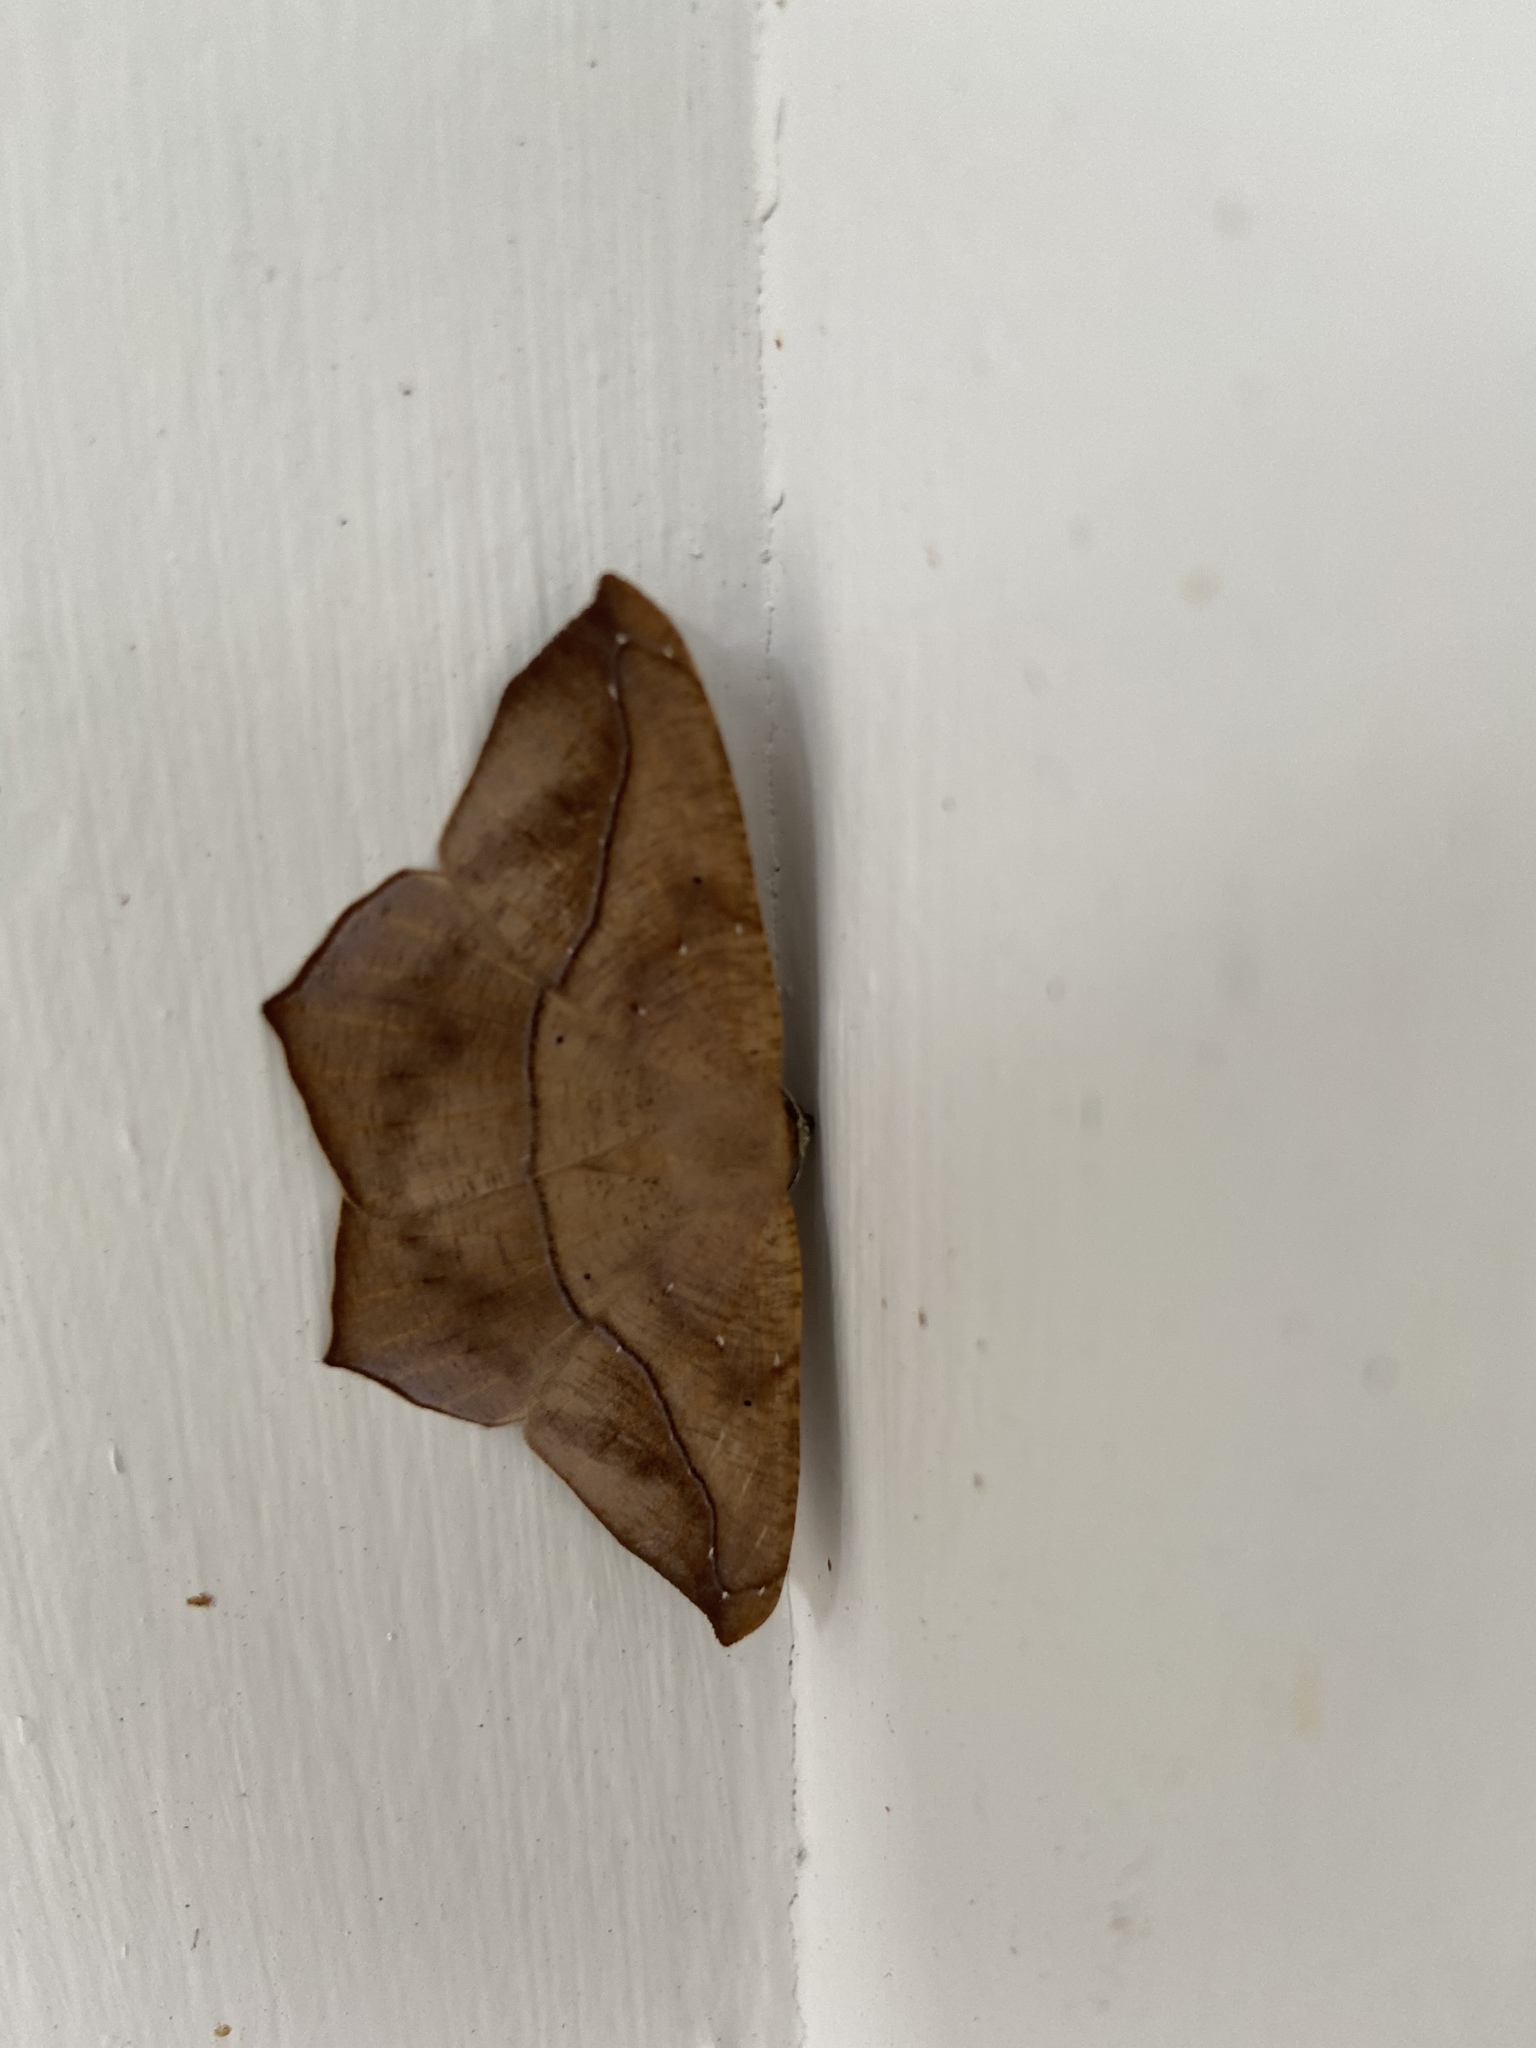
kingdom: Animalia
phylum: Arthropoda
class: Insecta
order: Lepidoptera
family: Geometridae
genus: Prochoerodes
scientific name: Prochoerodes lineola
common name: Large maple spanworm
